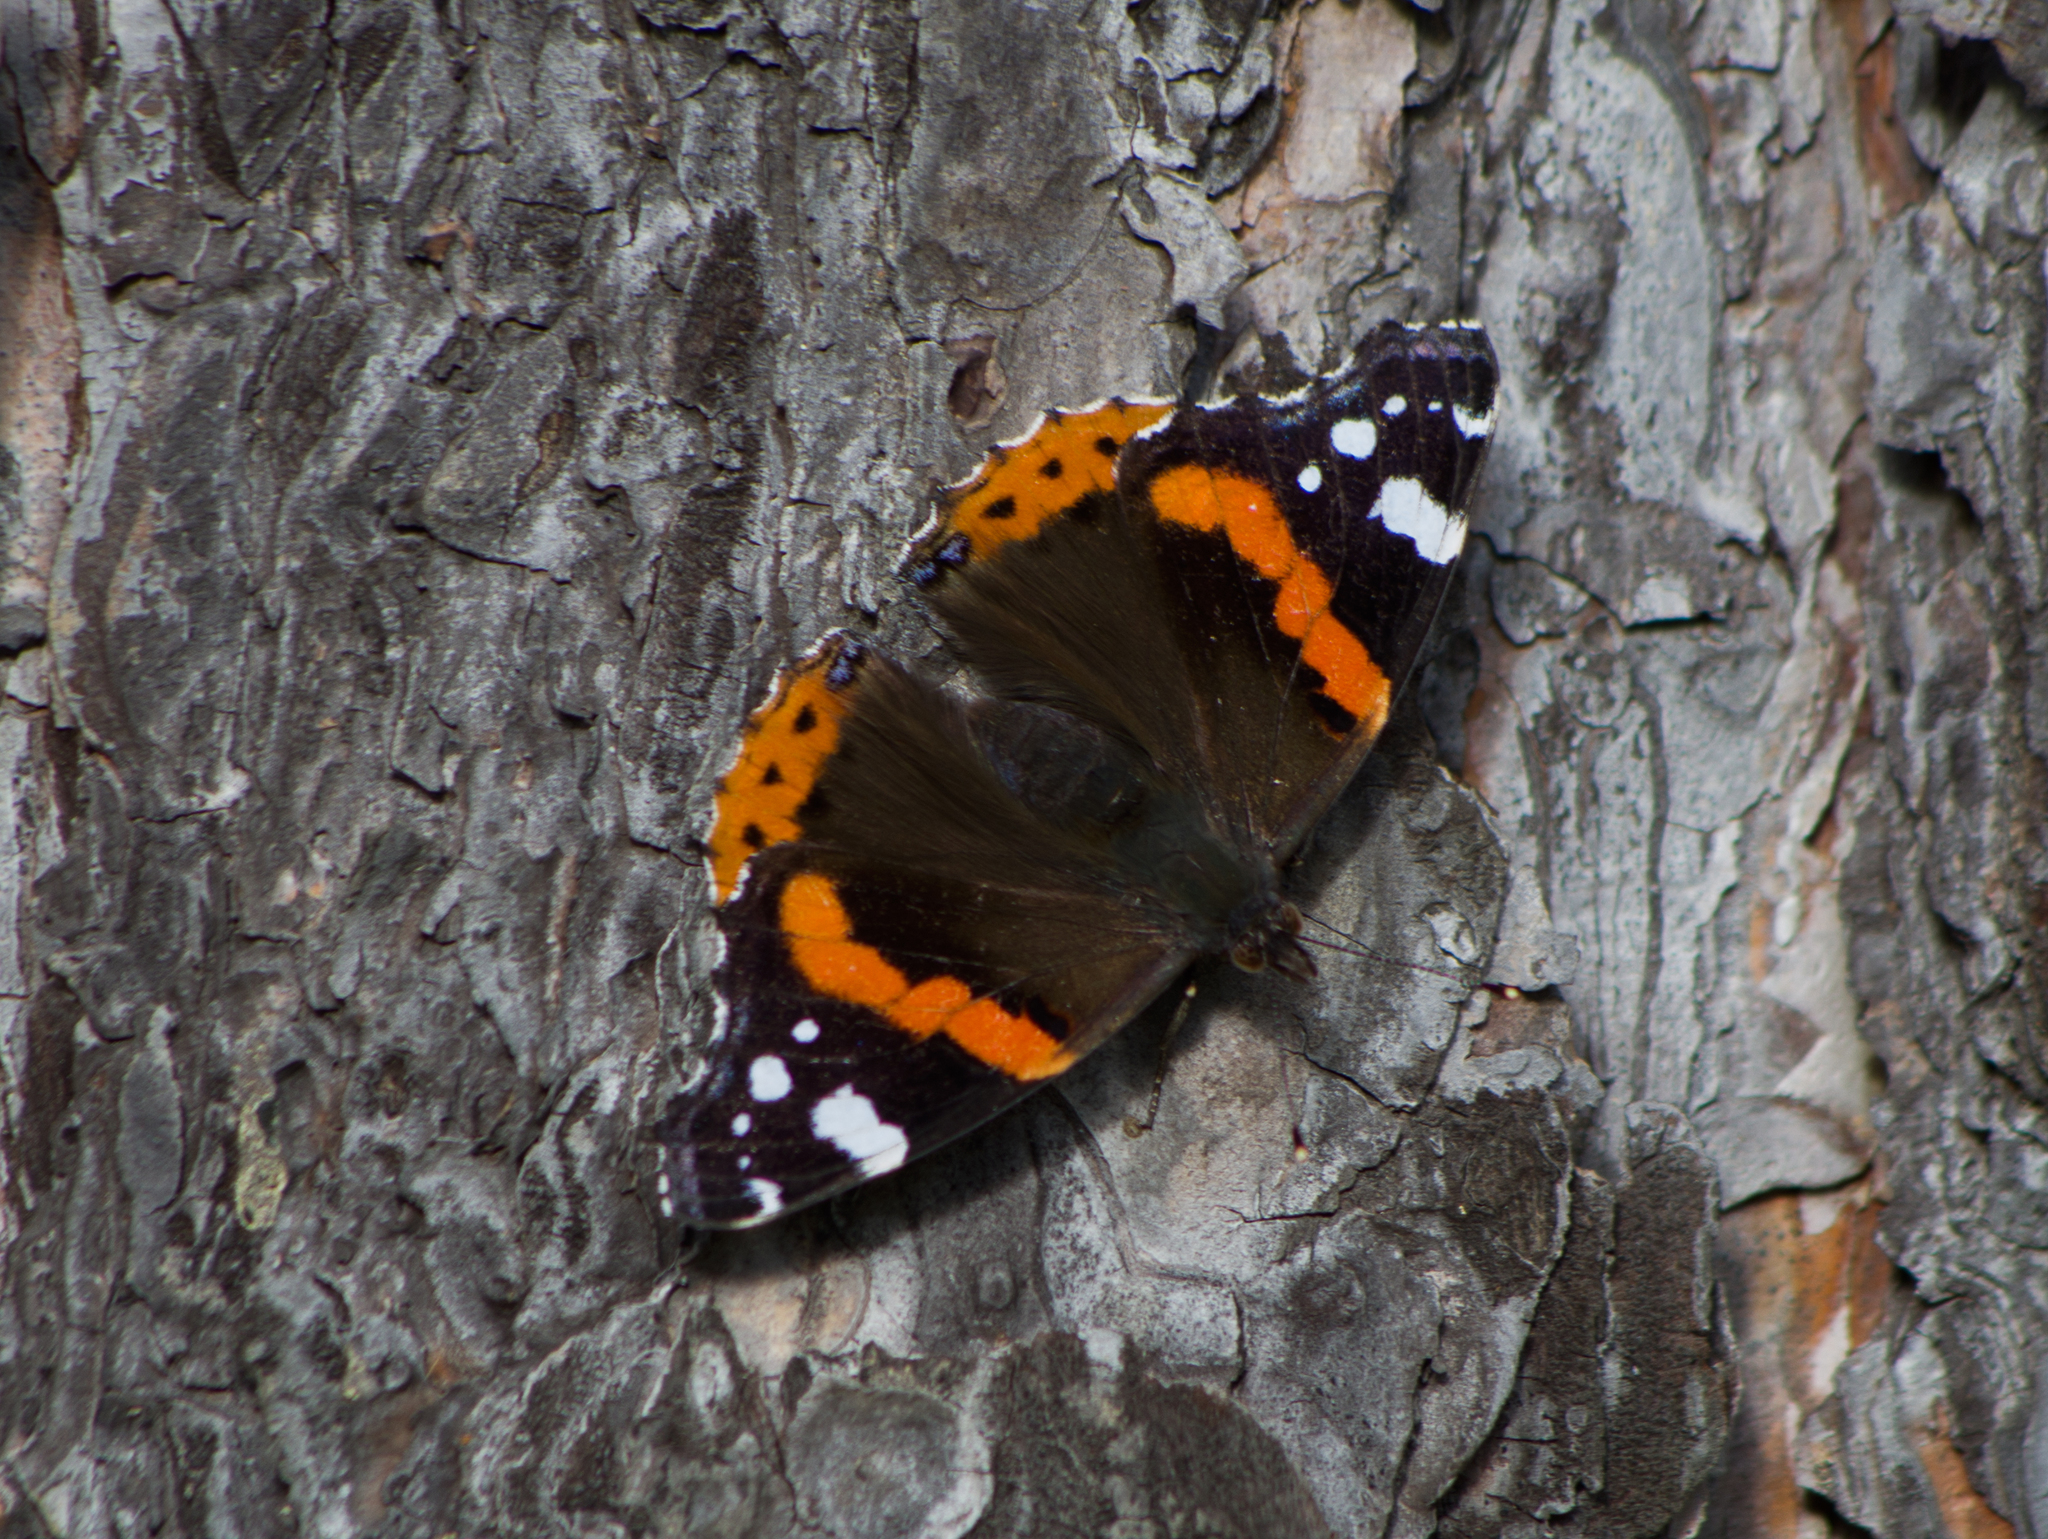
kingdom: Animalia
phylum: Arthropoda
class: Insecta
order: Lepidoptera
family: Nymphalidae
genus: Vanessa
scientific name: Vanessa atalanta
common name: Red admiral
